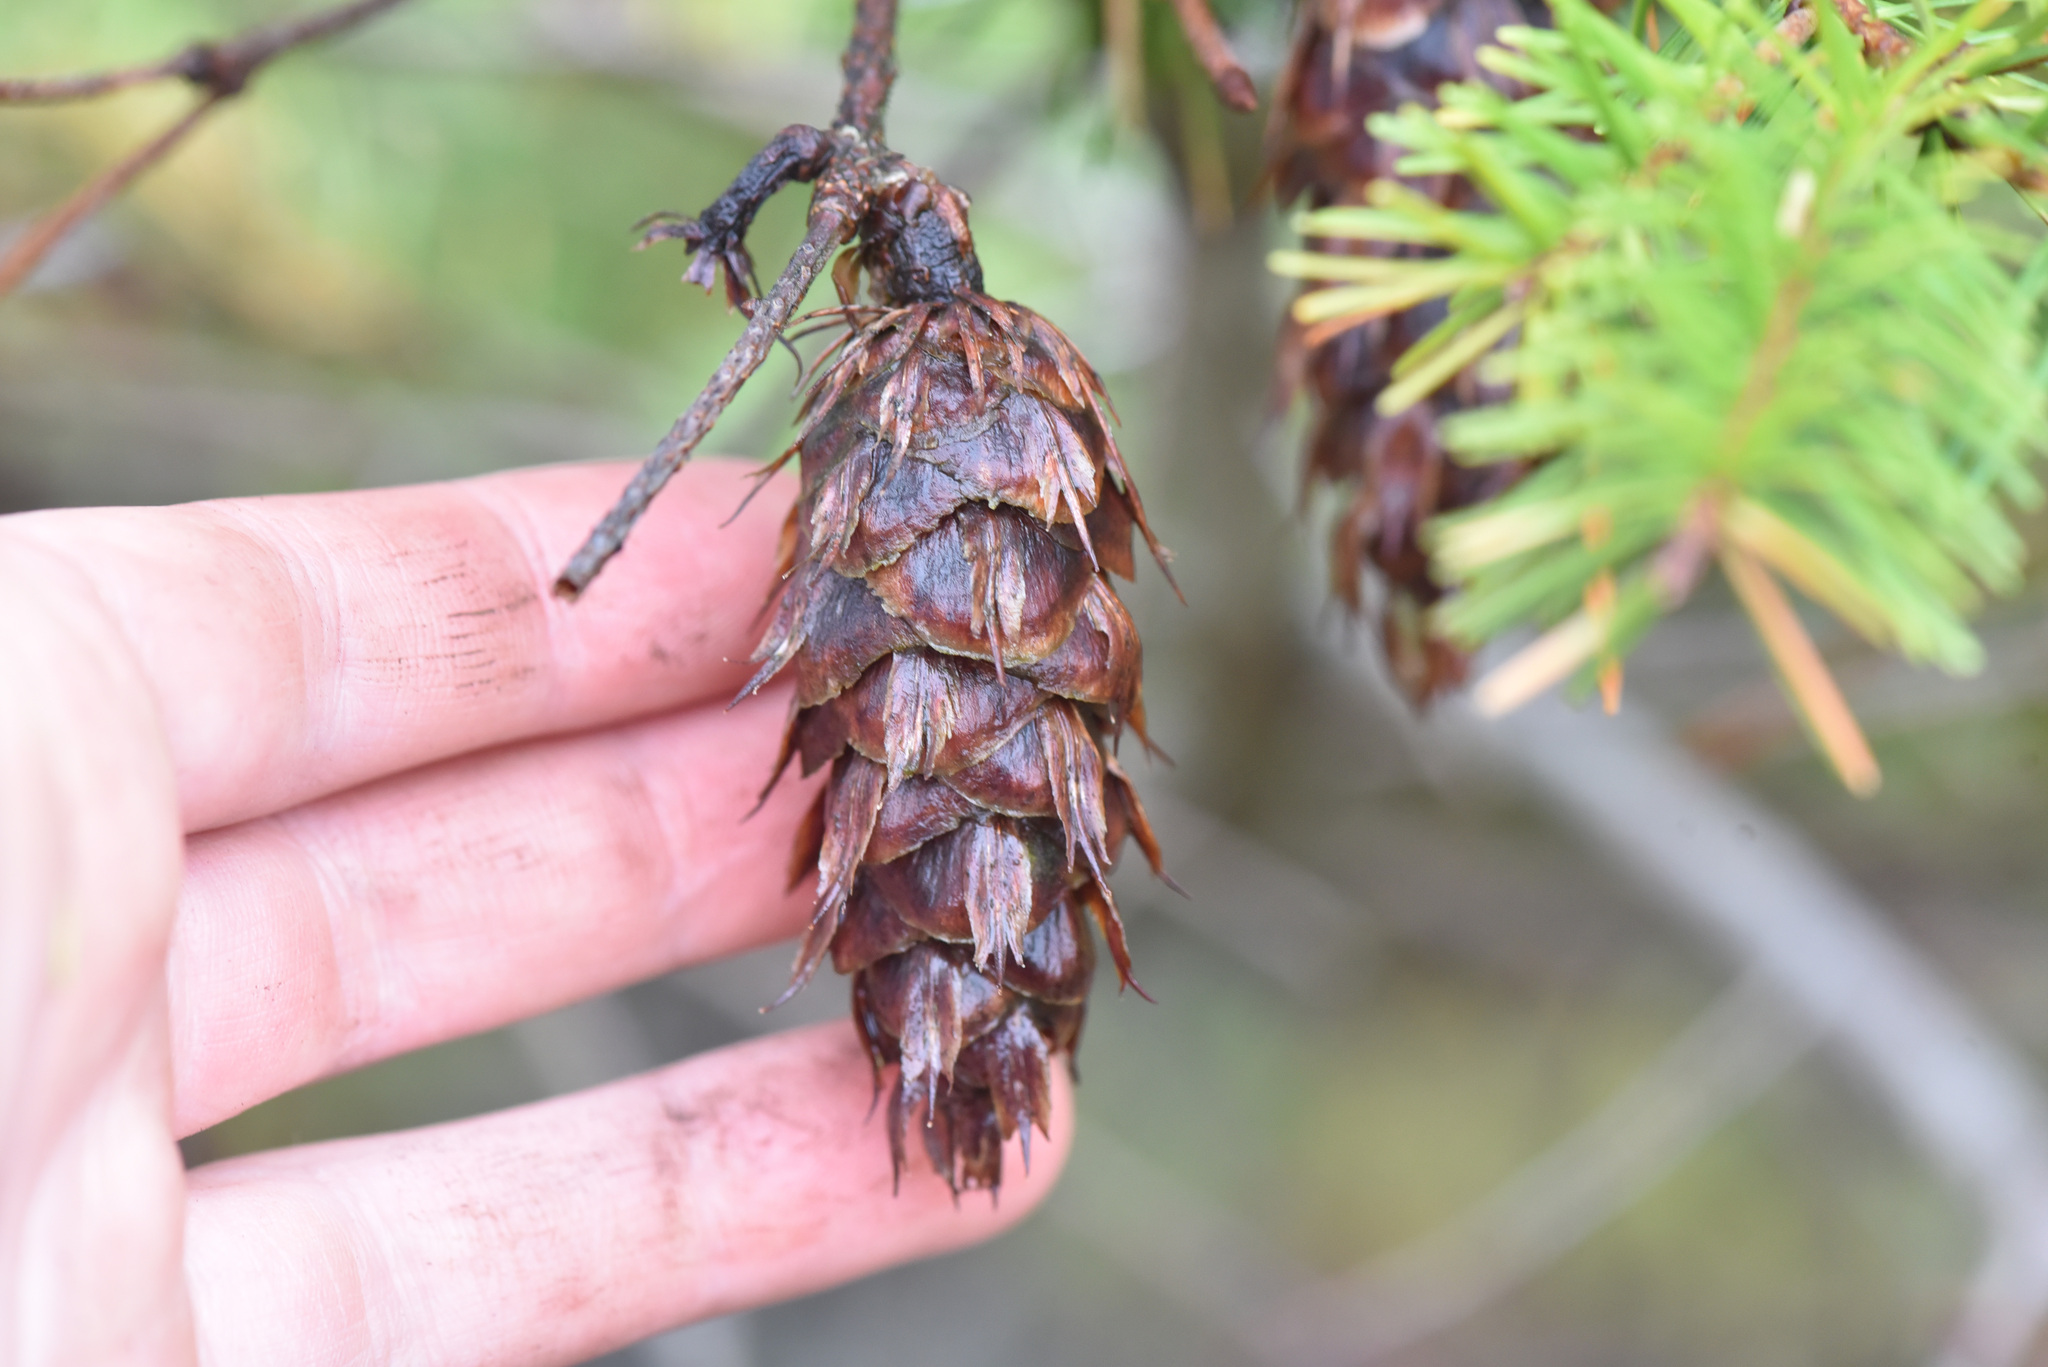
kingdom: Plantae
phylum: Tracheophyta
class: Pinopsida
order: Pinales
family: Pinaceae
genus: Pseudotsuga
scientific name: Pseudotsuga menziesii
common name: Douglas fir
